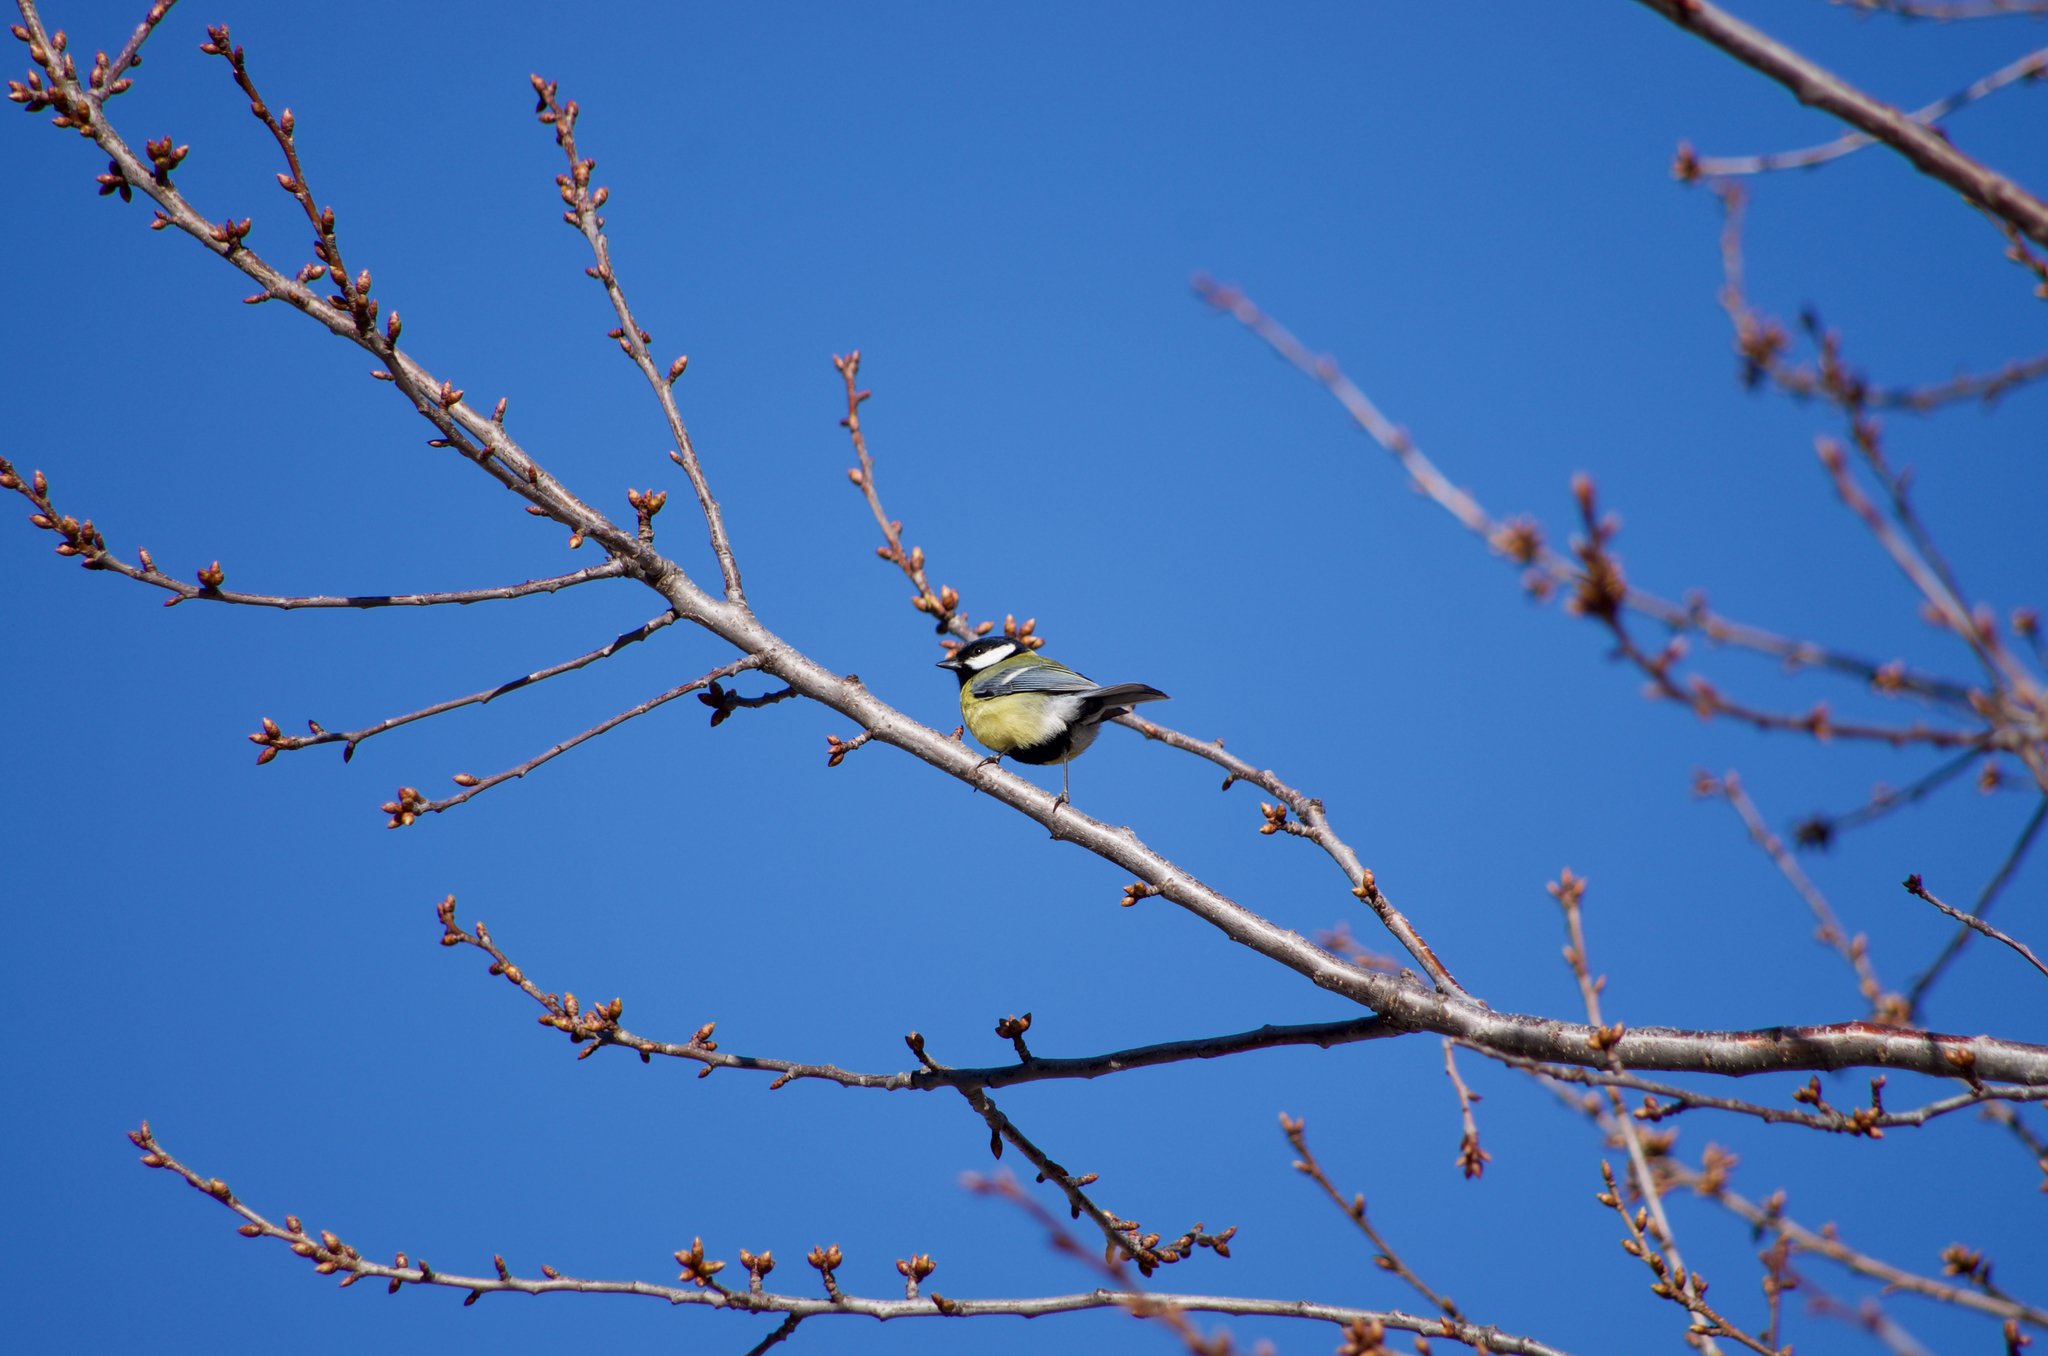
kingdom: Animalia
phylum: Chordata
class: Aves
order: Passeriformes
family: Paridae
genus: Parus
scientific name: Parus major
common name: Great tit
